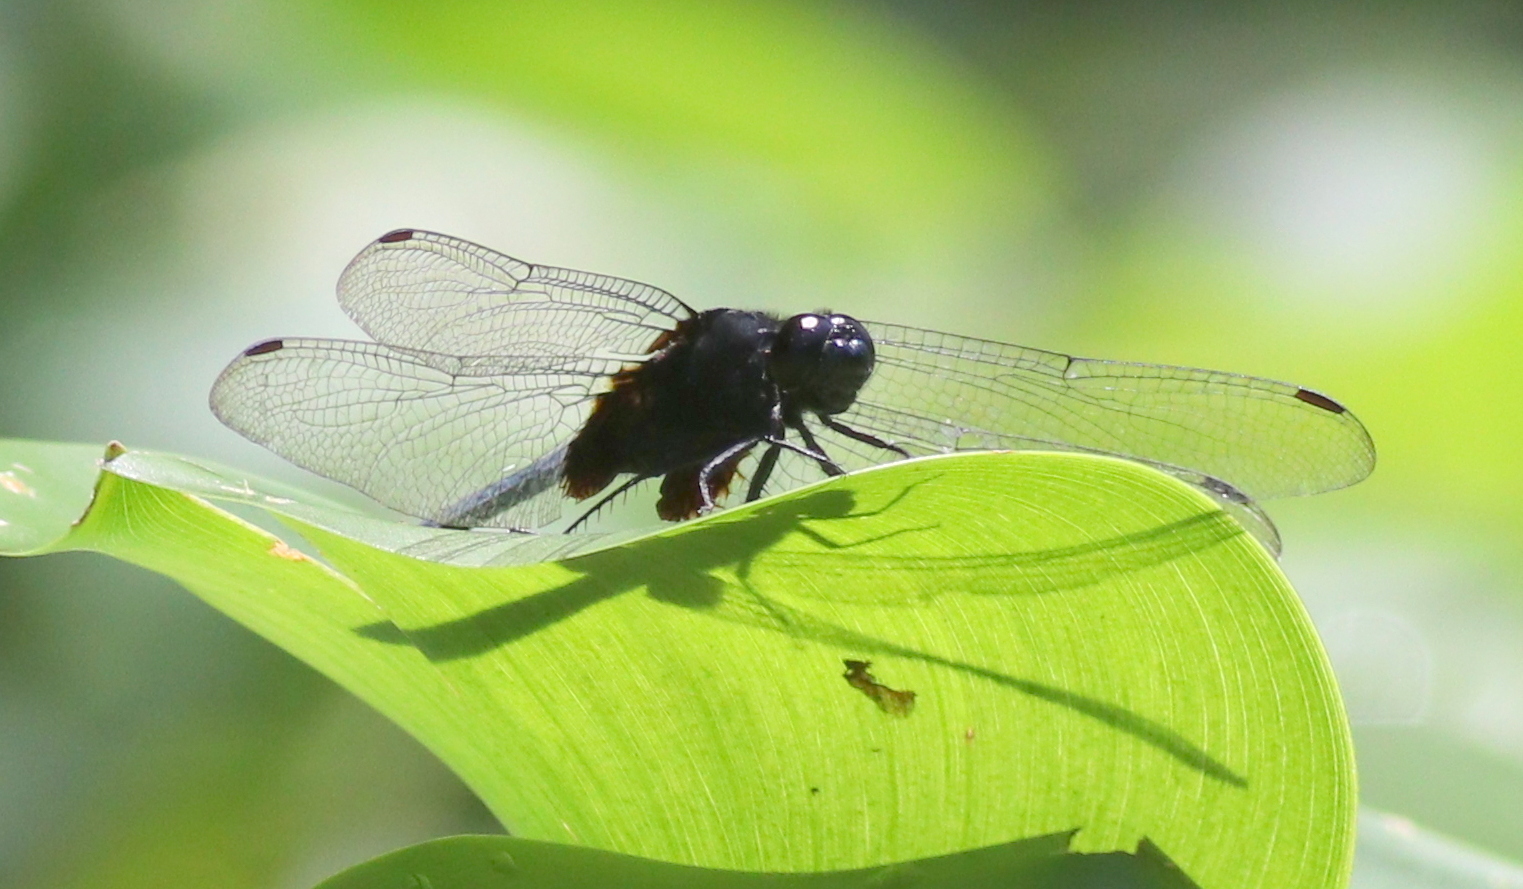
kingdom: Animalia
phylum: Arthropoda
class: Insecta
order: Odonata
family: Libellulidae
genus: Erythemis
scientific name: Erythemis attala
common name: Black pondhawk
